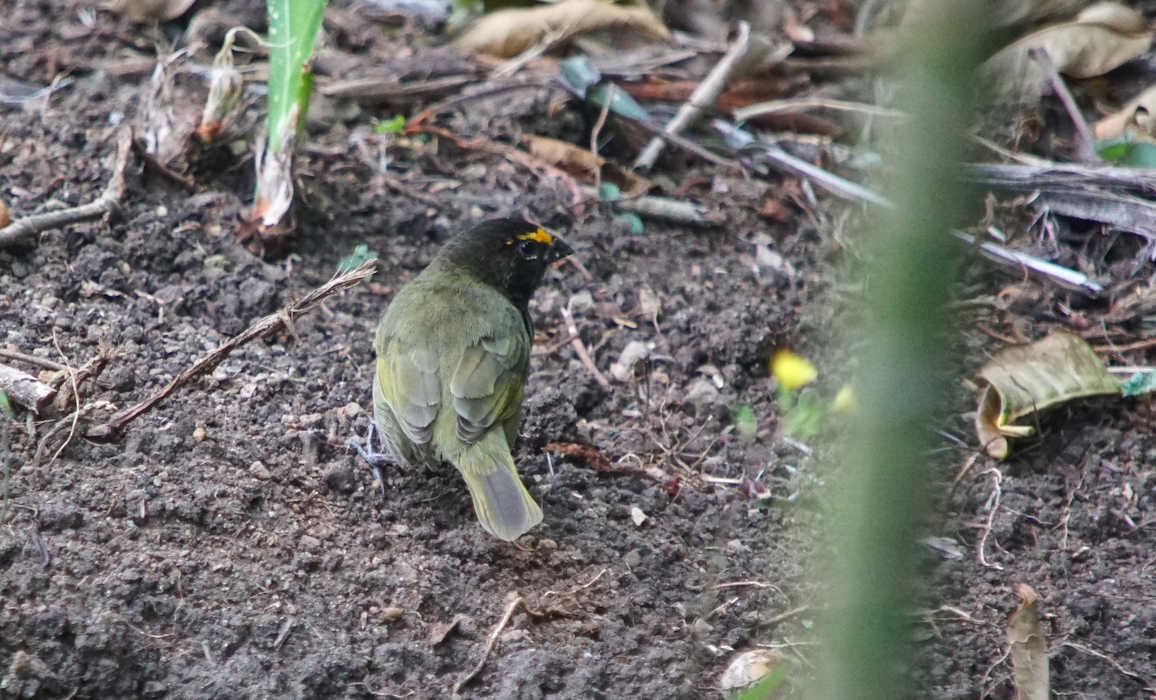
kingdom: Animalia
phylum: Chordata
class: Aves
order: Passeriformes
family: Thraupidae
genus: Tiaris
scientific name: Tiaris olivaceus
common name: Yellow-faced grassquit
